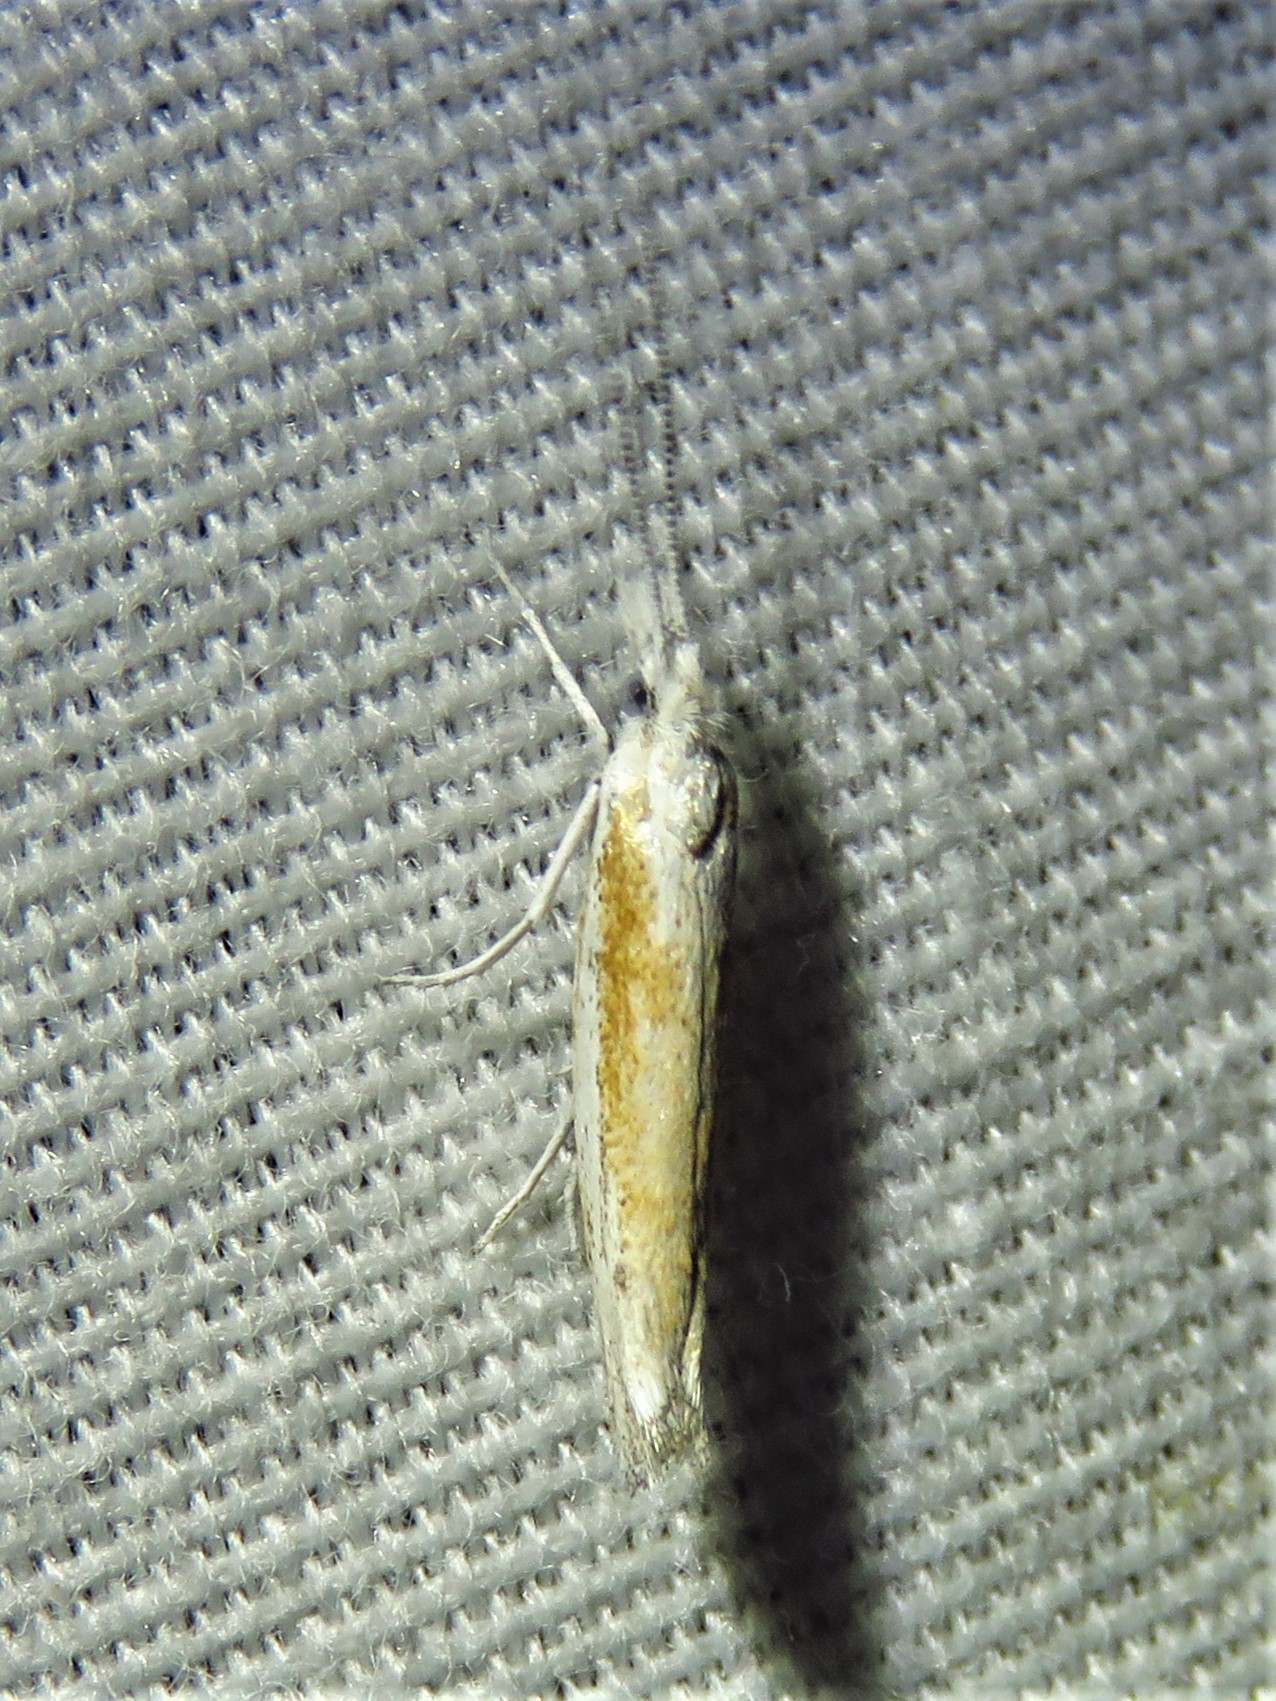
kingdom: Animalia
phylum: Arthropoda
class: Insecta
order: Lepidoptera
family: Ypsolophidae
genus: Ypsolopha
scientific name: Ypsolopha gerdanella
